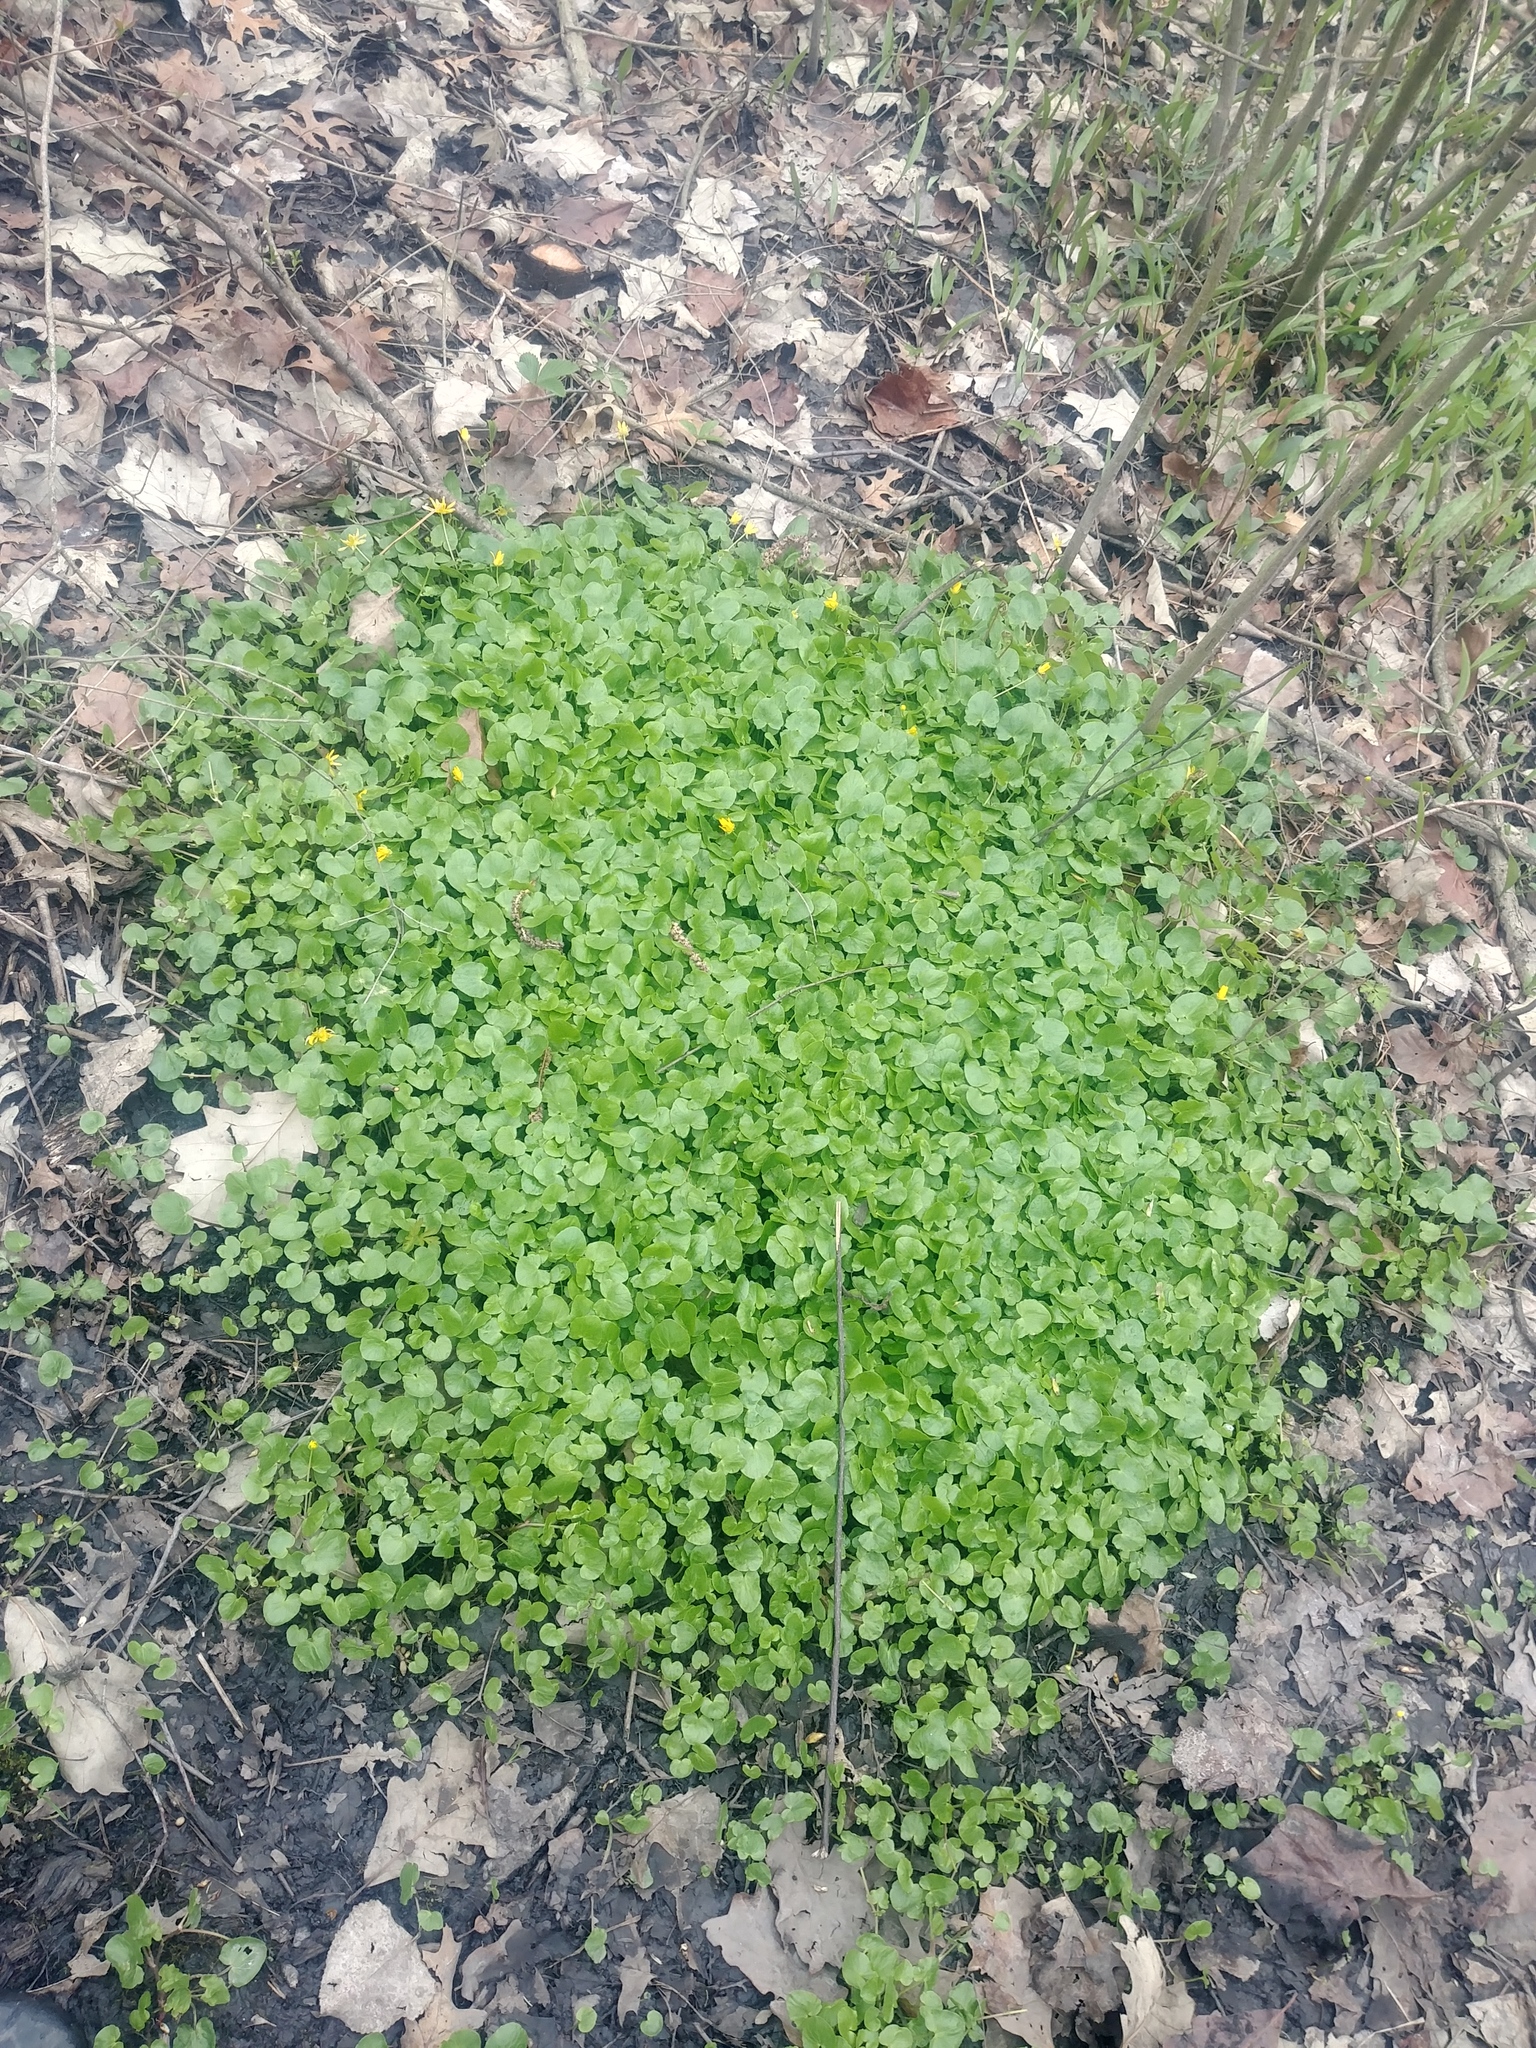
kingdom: Plantae
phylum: Tracheophyta
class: Magnoliopsida
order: Ranunculales
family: Ranunculaceae
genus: Ficaria
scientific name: Ficaria verna
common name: Lesser celandine
